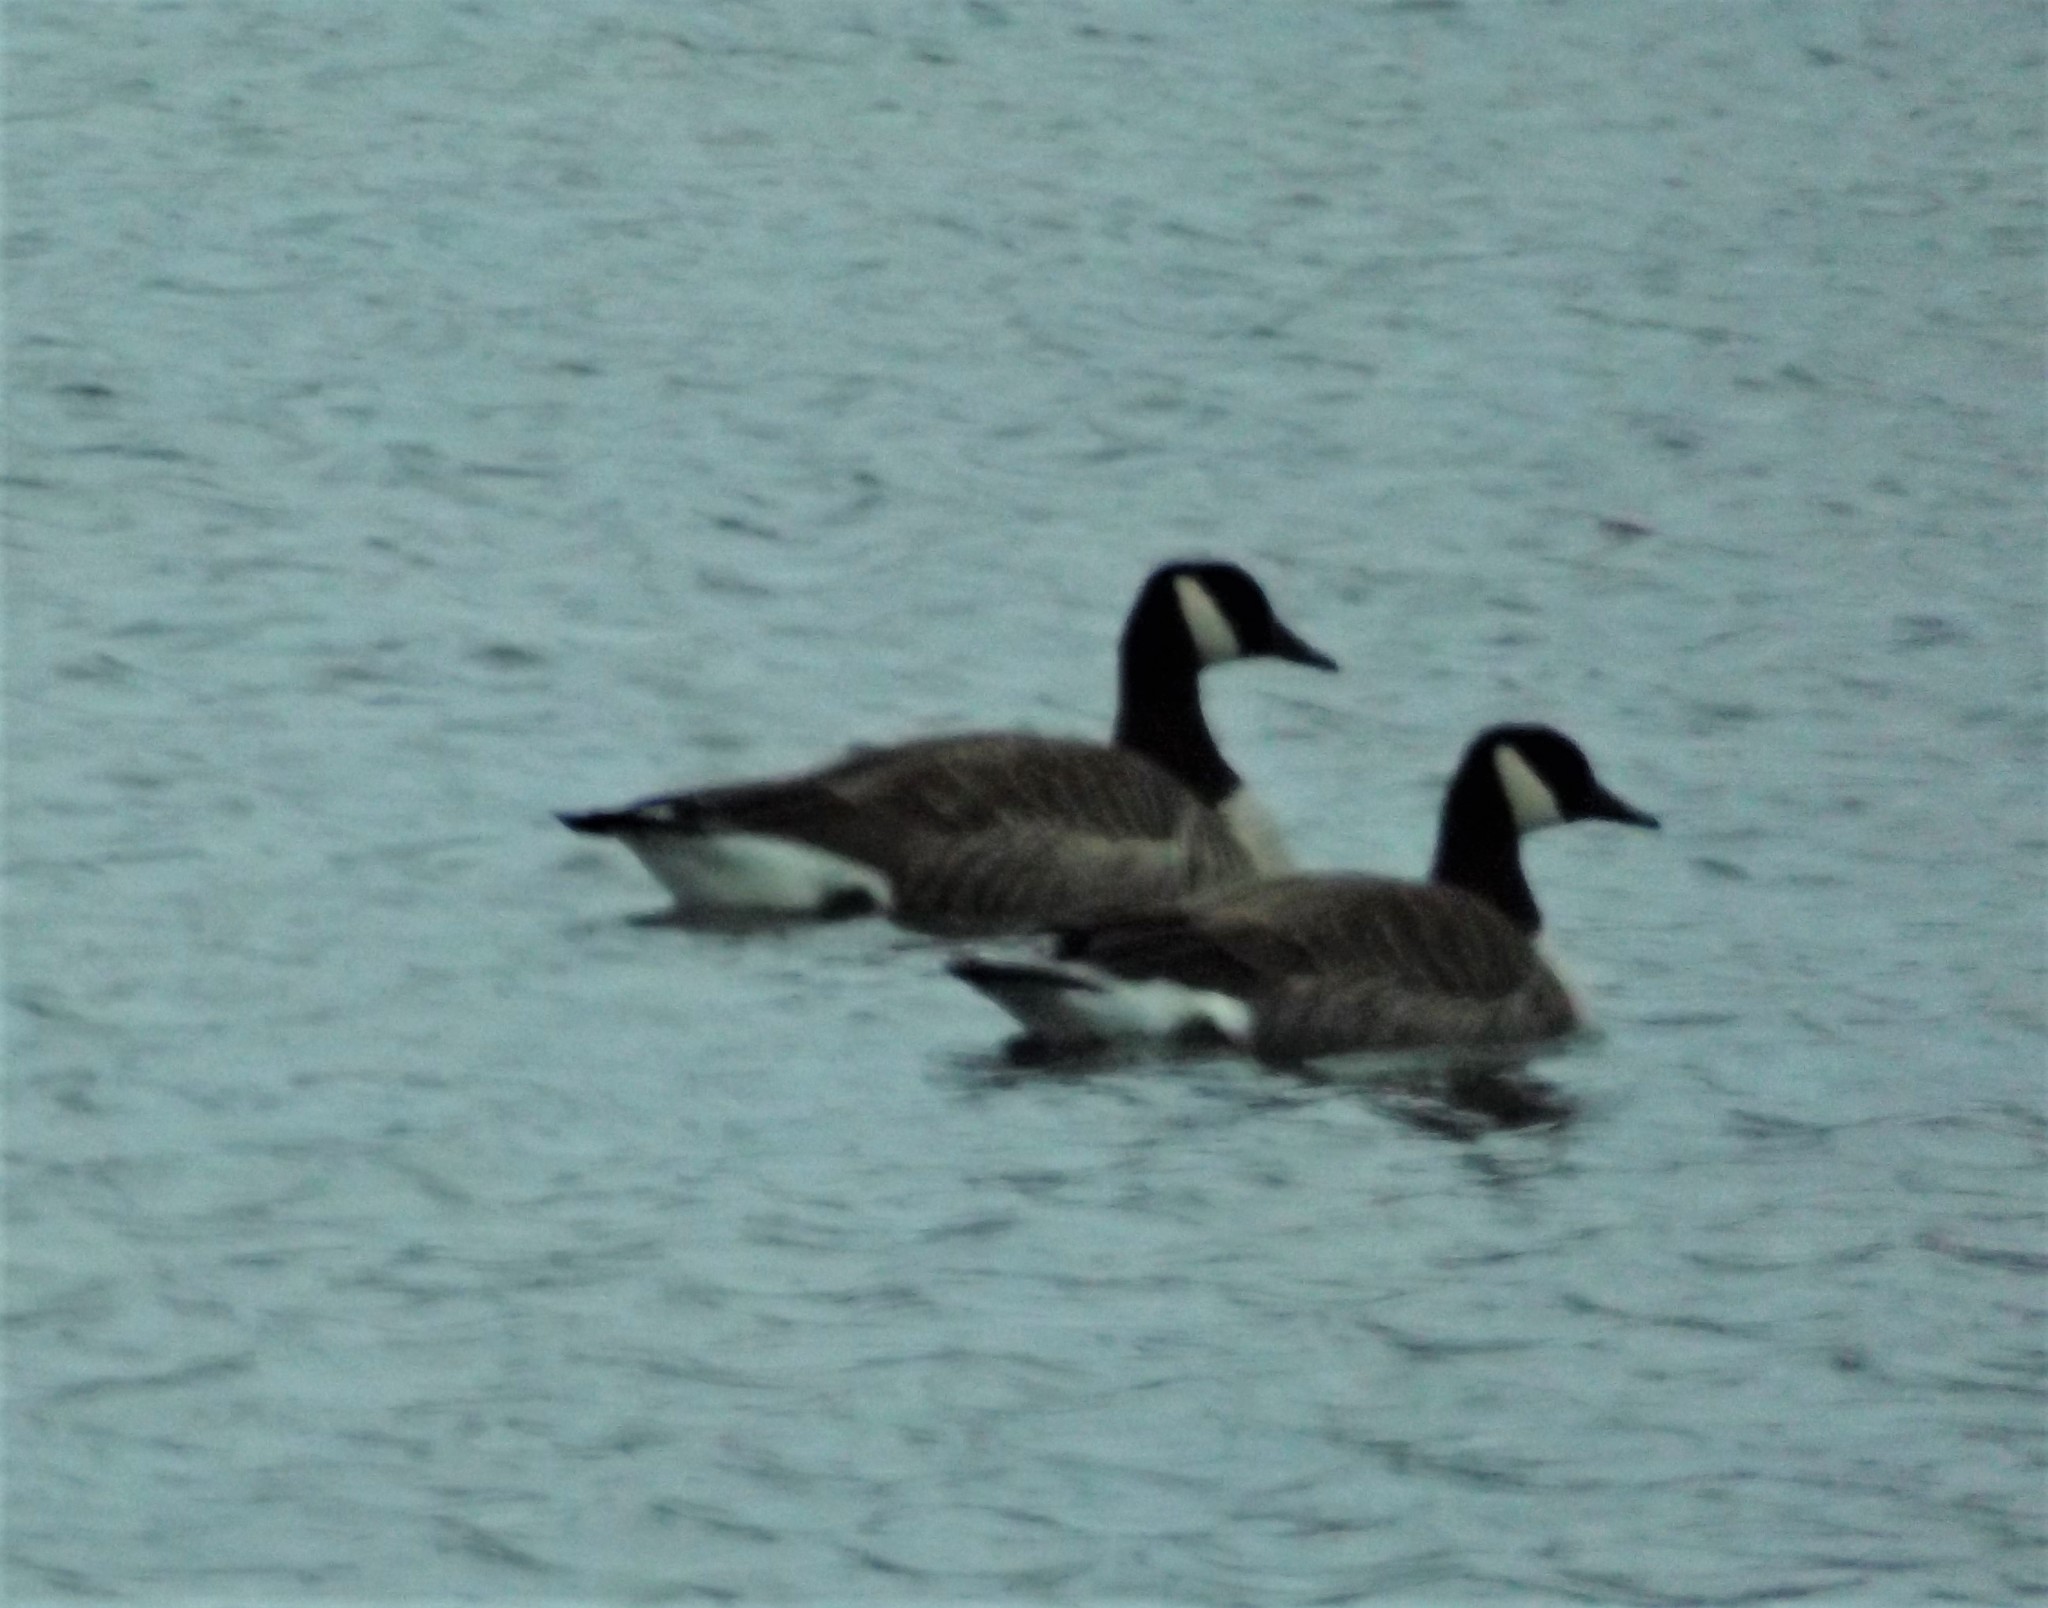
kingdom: Animalia
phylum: Chordata
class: Aves
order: Anseriformes
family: Anatidae
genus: Branta
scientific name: Branta canadensis
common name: Canada goose
